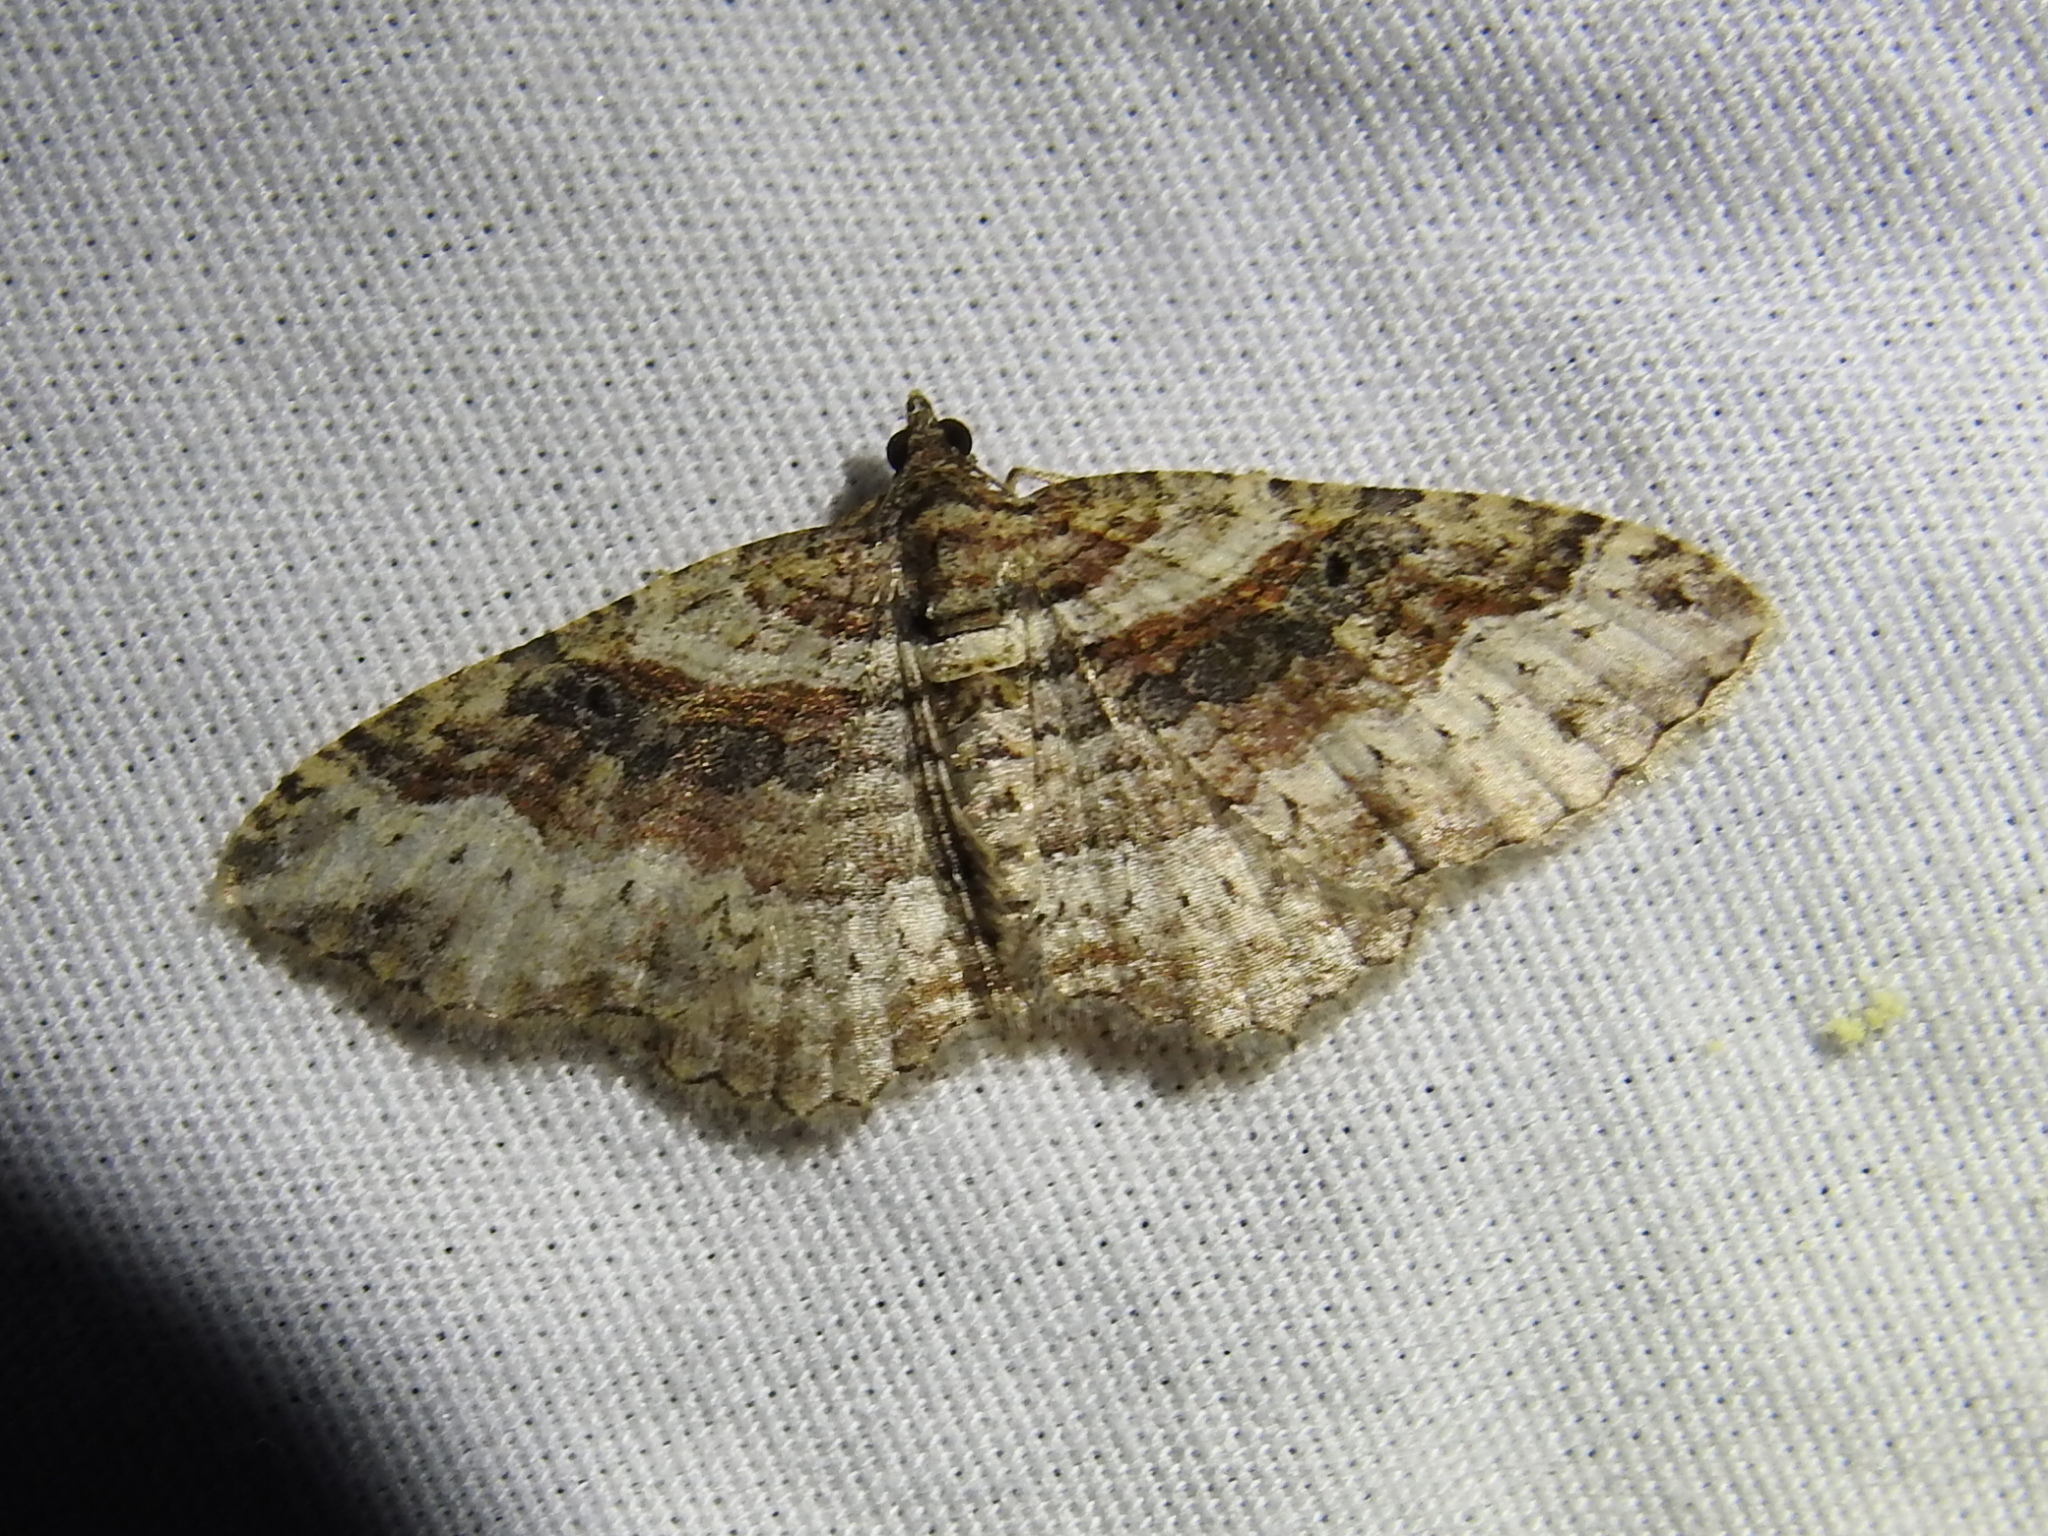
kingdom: Animalia
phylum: Arthropoda
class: Insecta
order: Lepidoptera
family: Geometridae
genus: Costaconvexa
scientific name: Costaconvexa centrostrigaria
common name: Bent-line carpet
